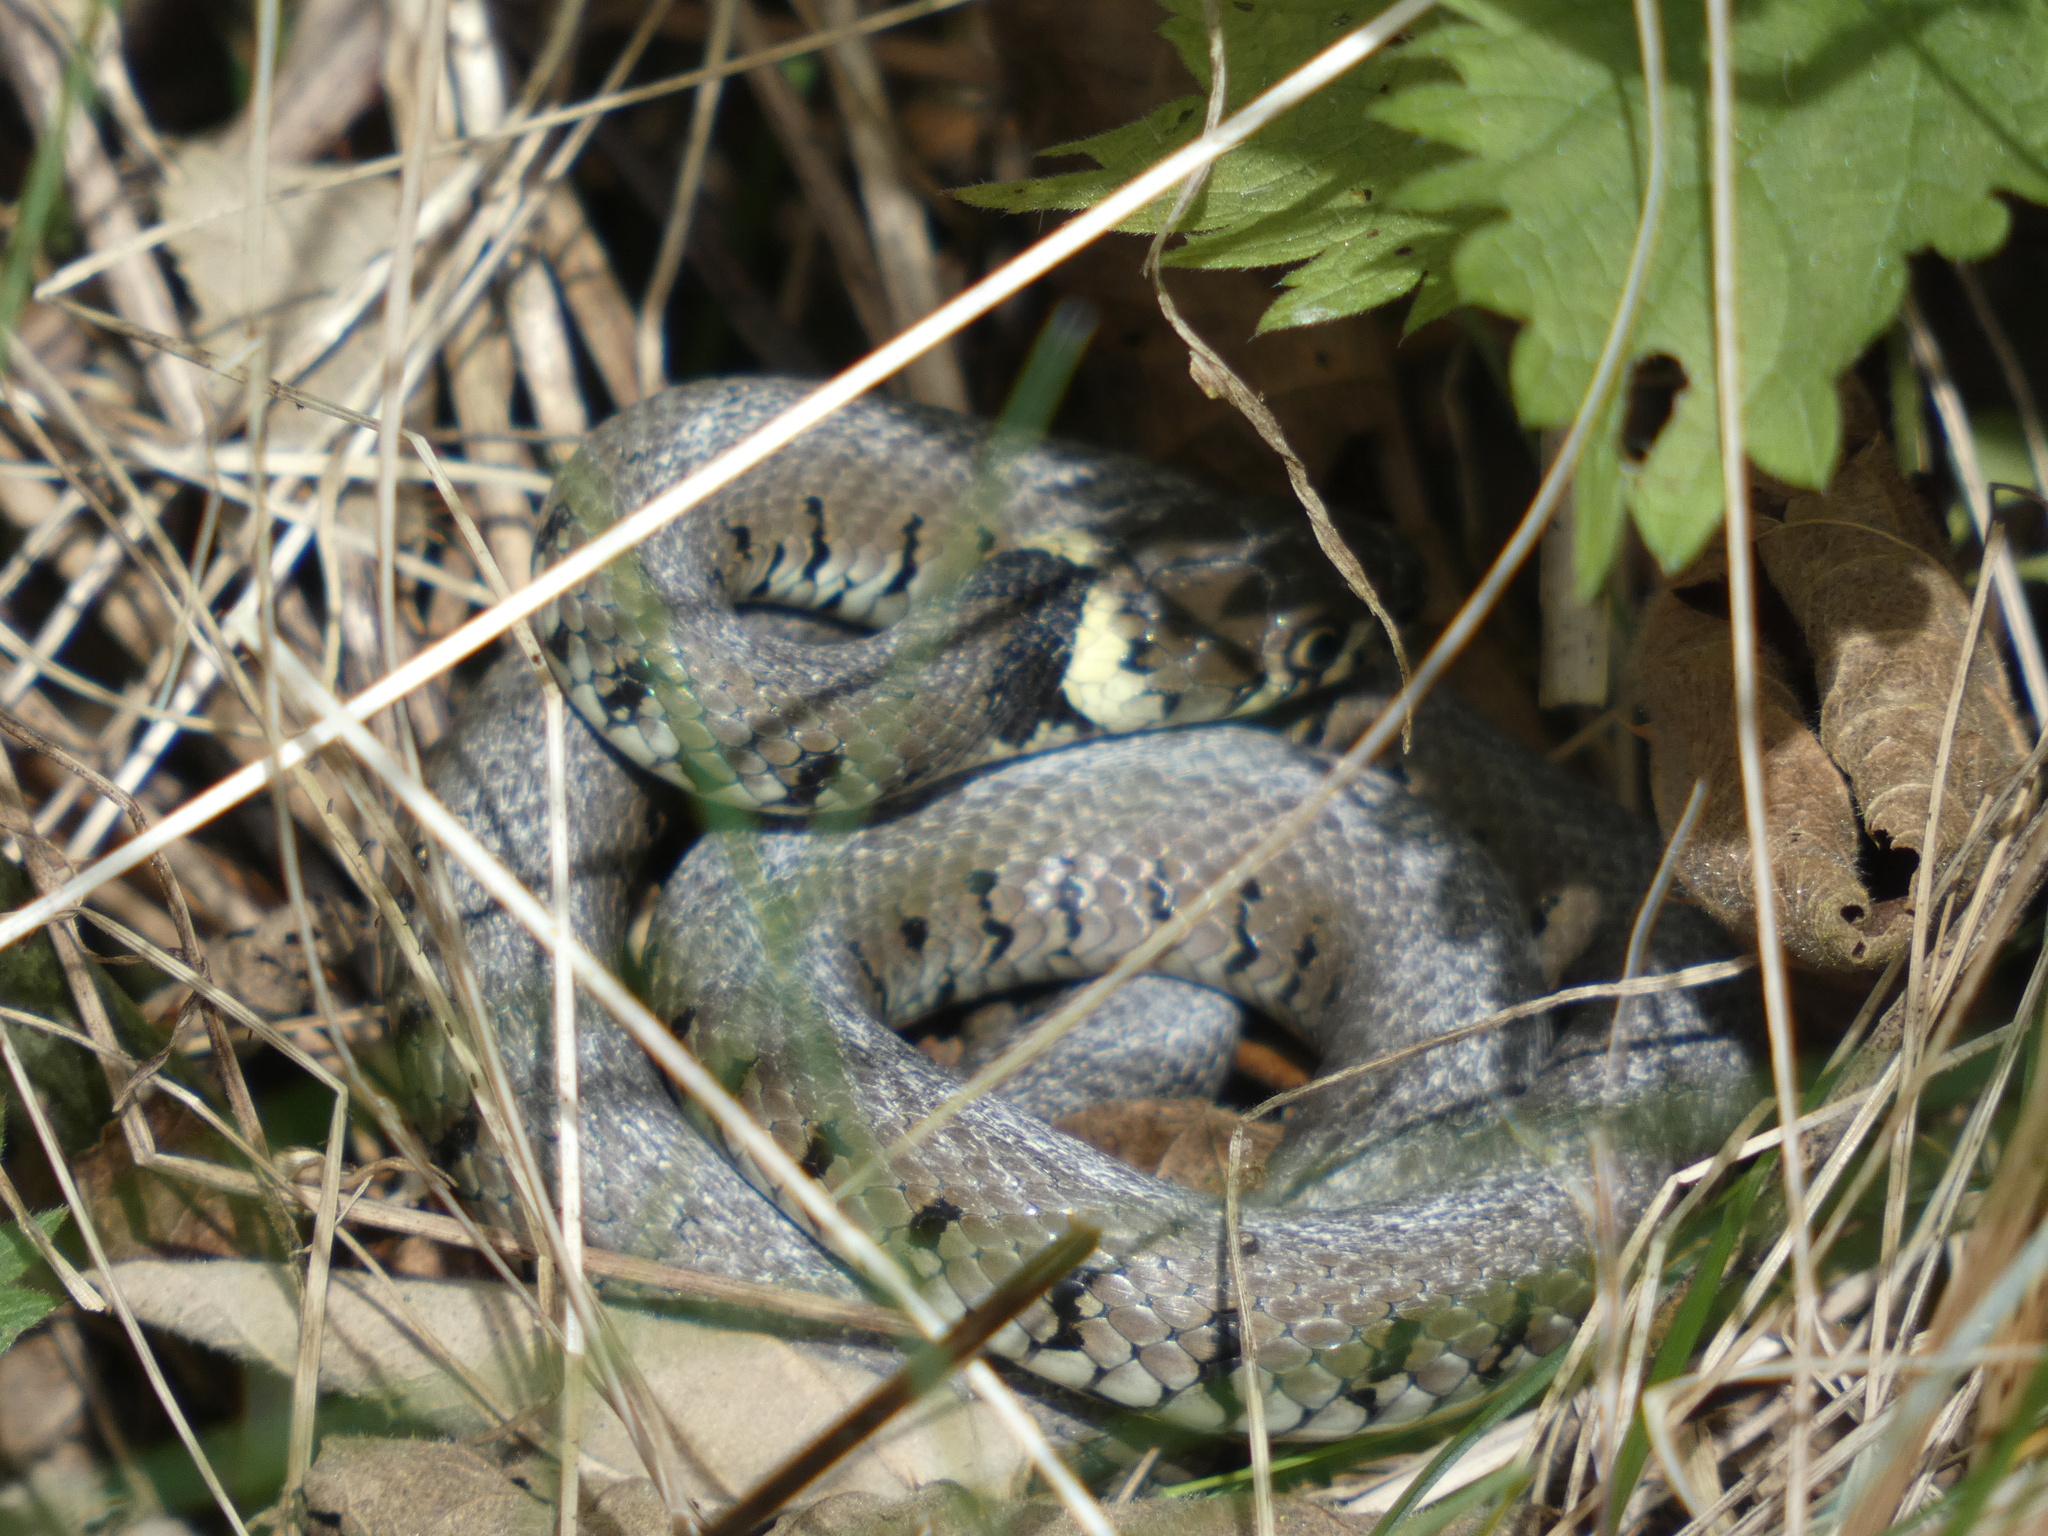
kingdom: Animalia
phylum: Chordata
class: Squamata
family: Colubridae
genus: Natrix
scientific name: Natrix helvetica
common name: Banded grass snake
